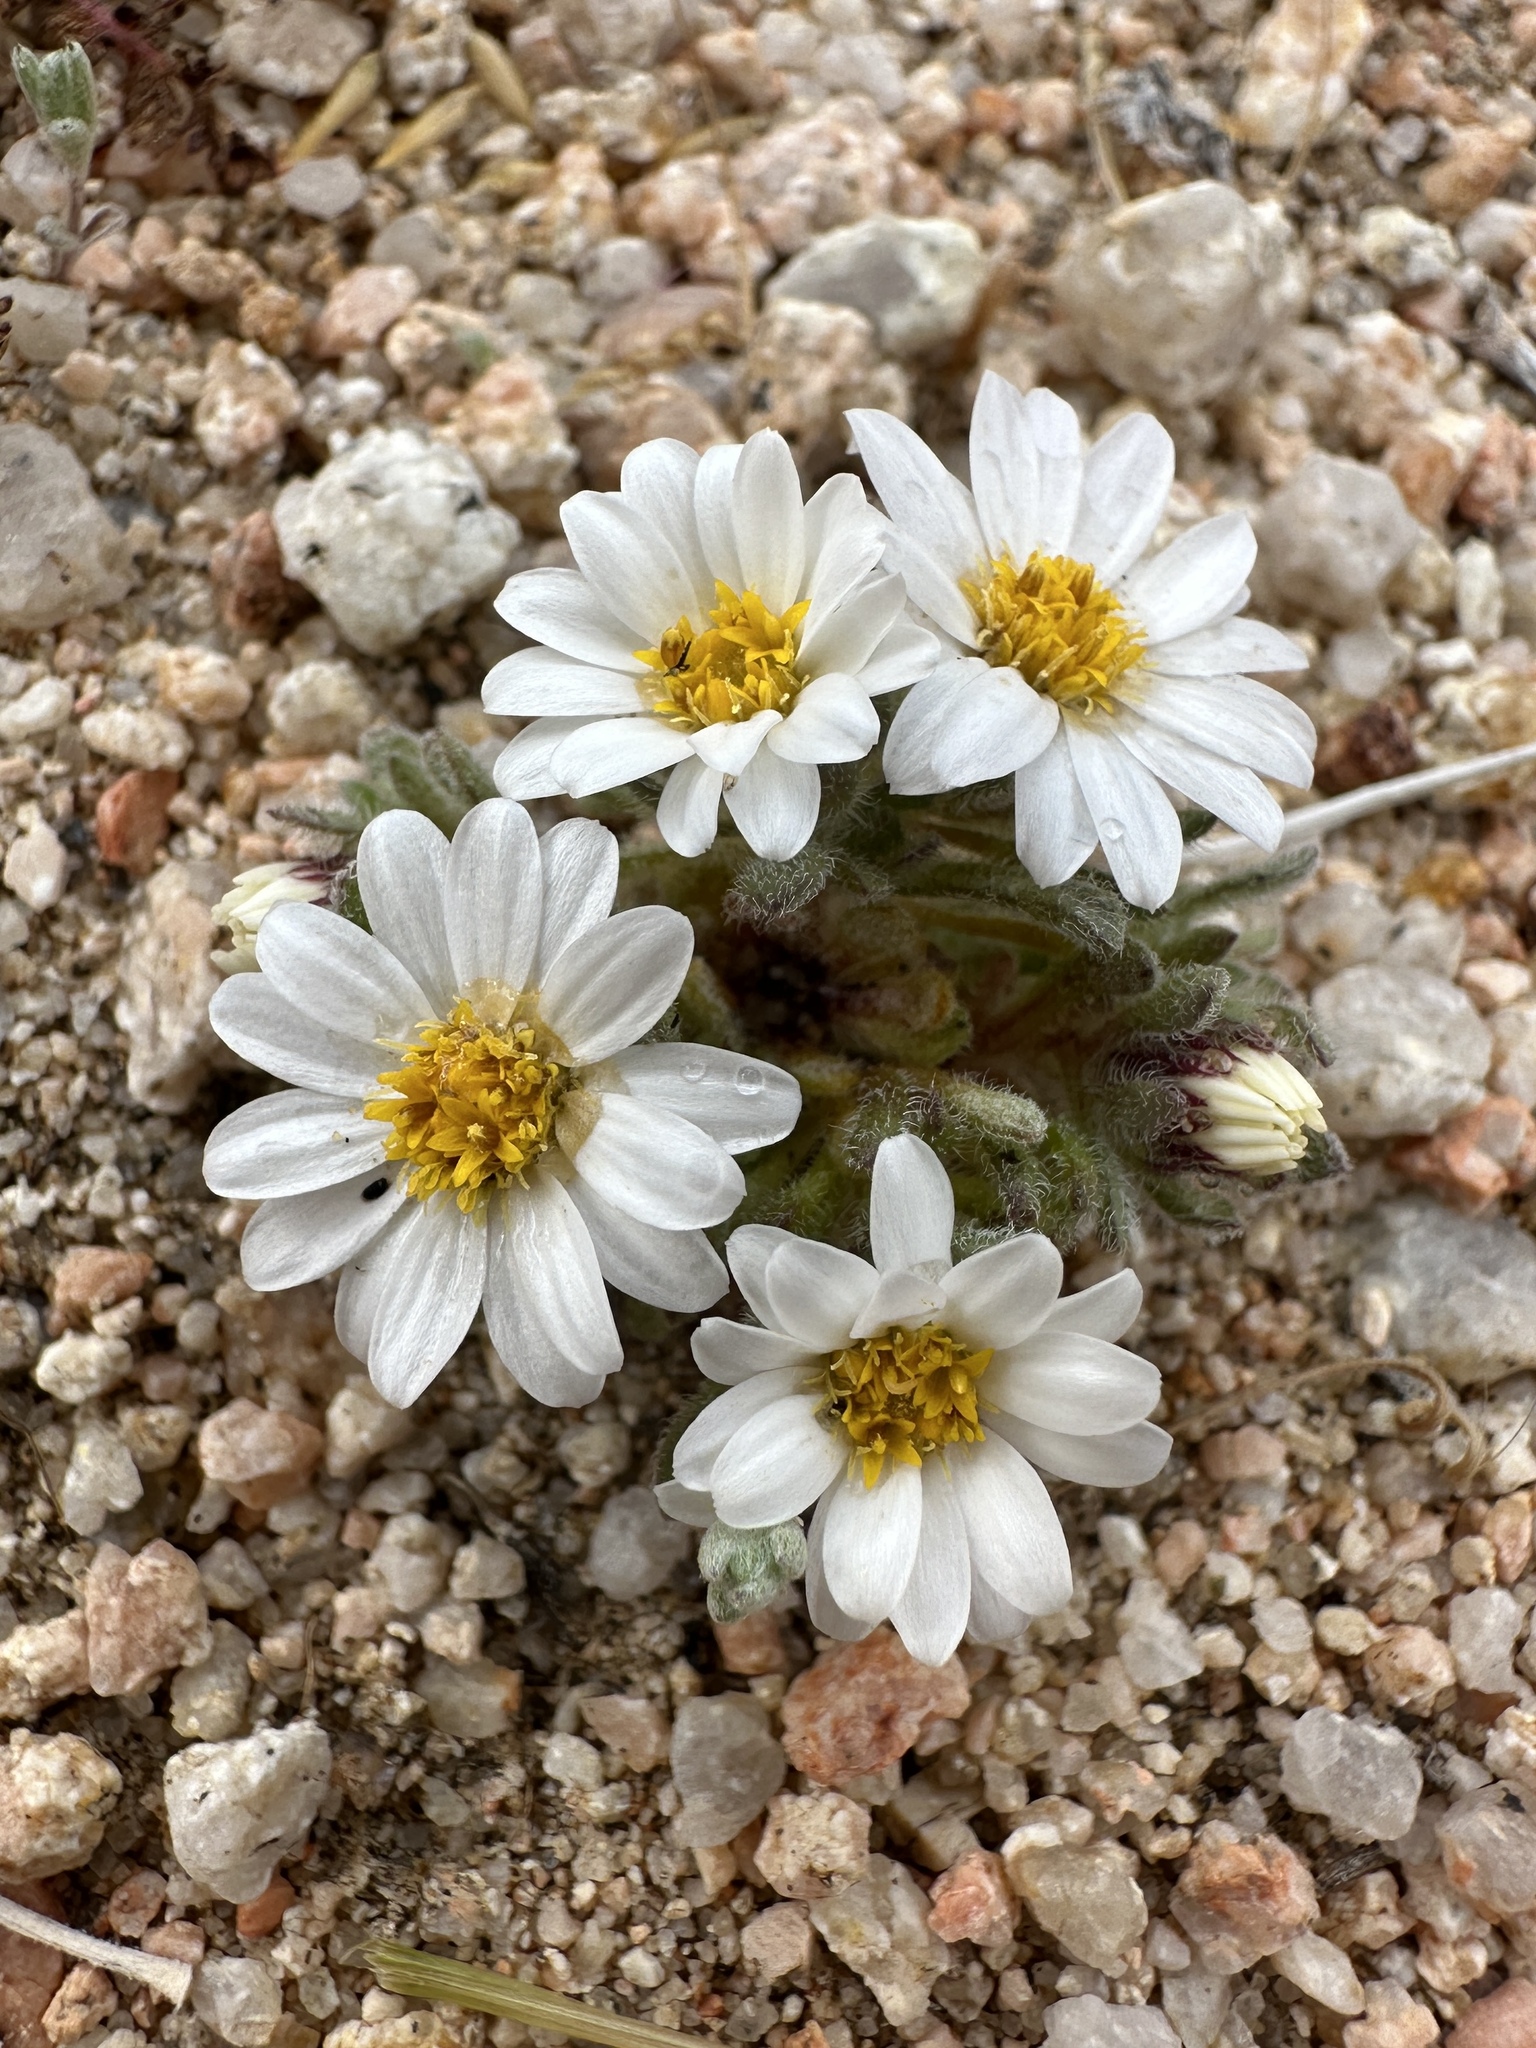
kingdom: Plantae
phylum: Tracheophyta
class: Magnoliopsida
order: Asterales
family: Asteraceae
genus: Monoptilon
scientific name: Monoptilon bellidiforme
